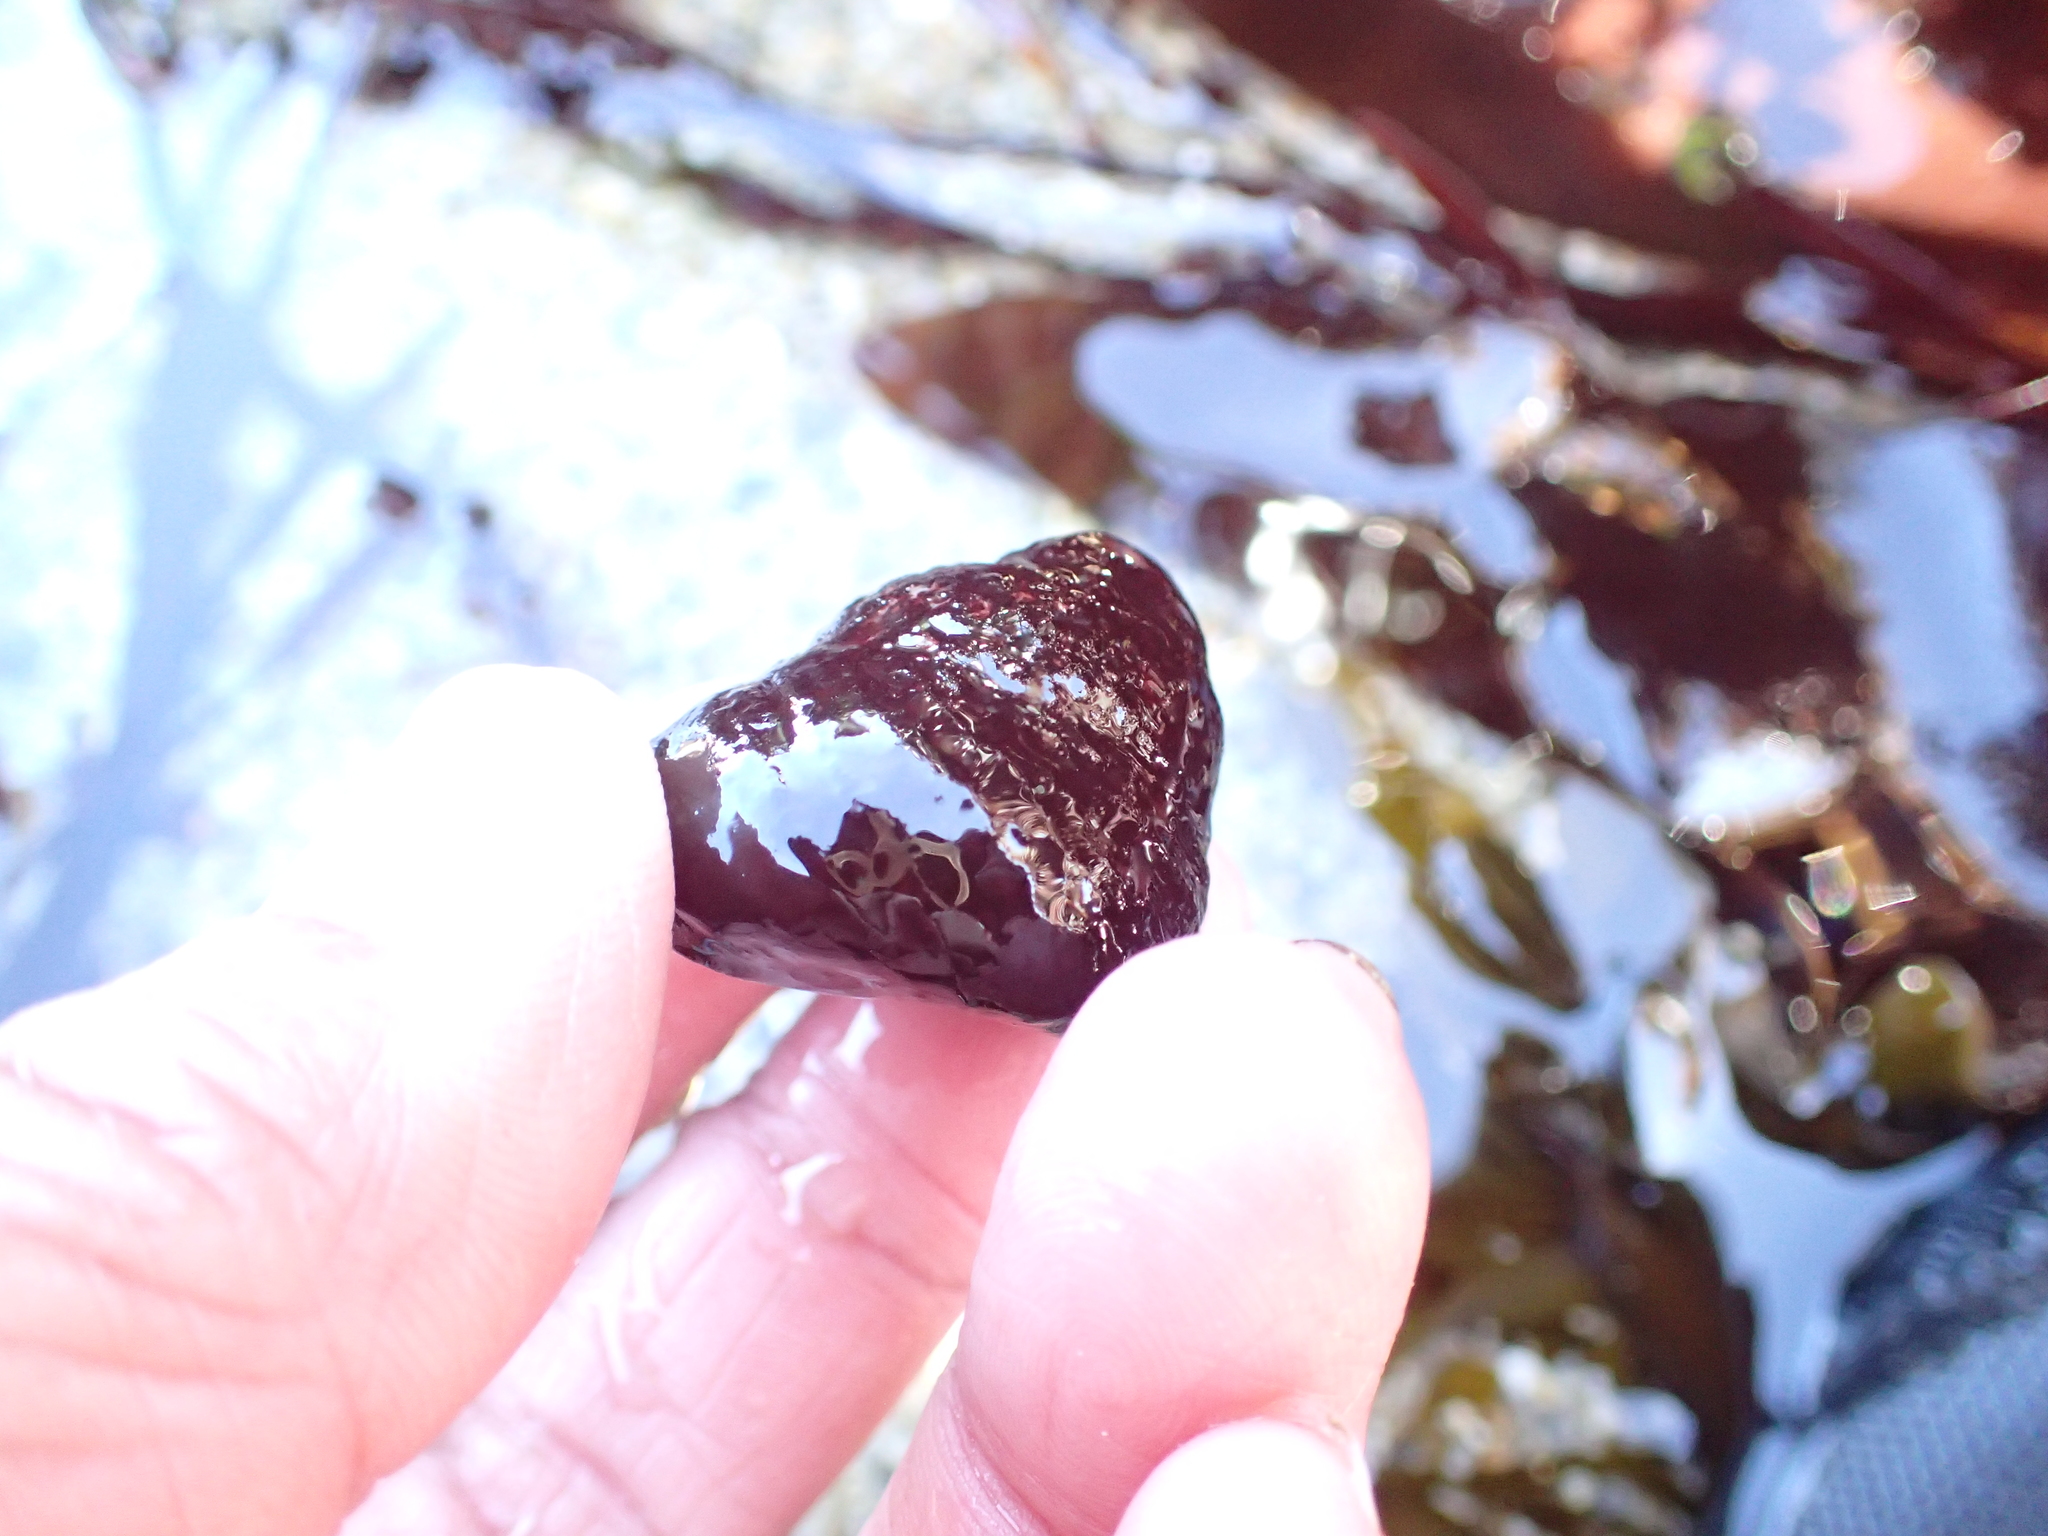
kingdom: Animalia
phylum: Mollusca
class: Gastropoda
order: Trochida
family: Tegulidae
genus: Tegula
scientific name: Tegula brunnea
